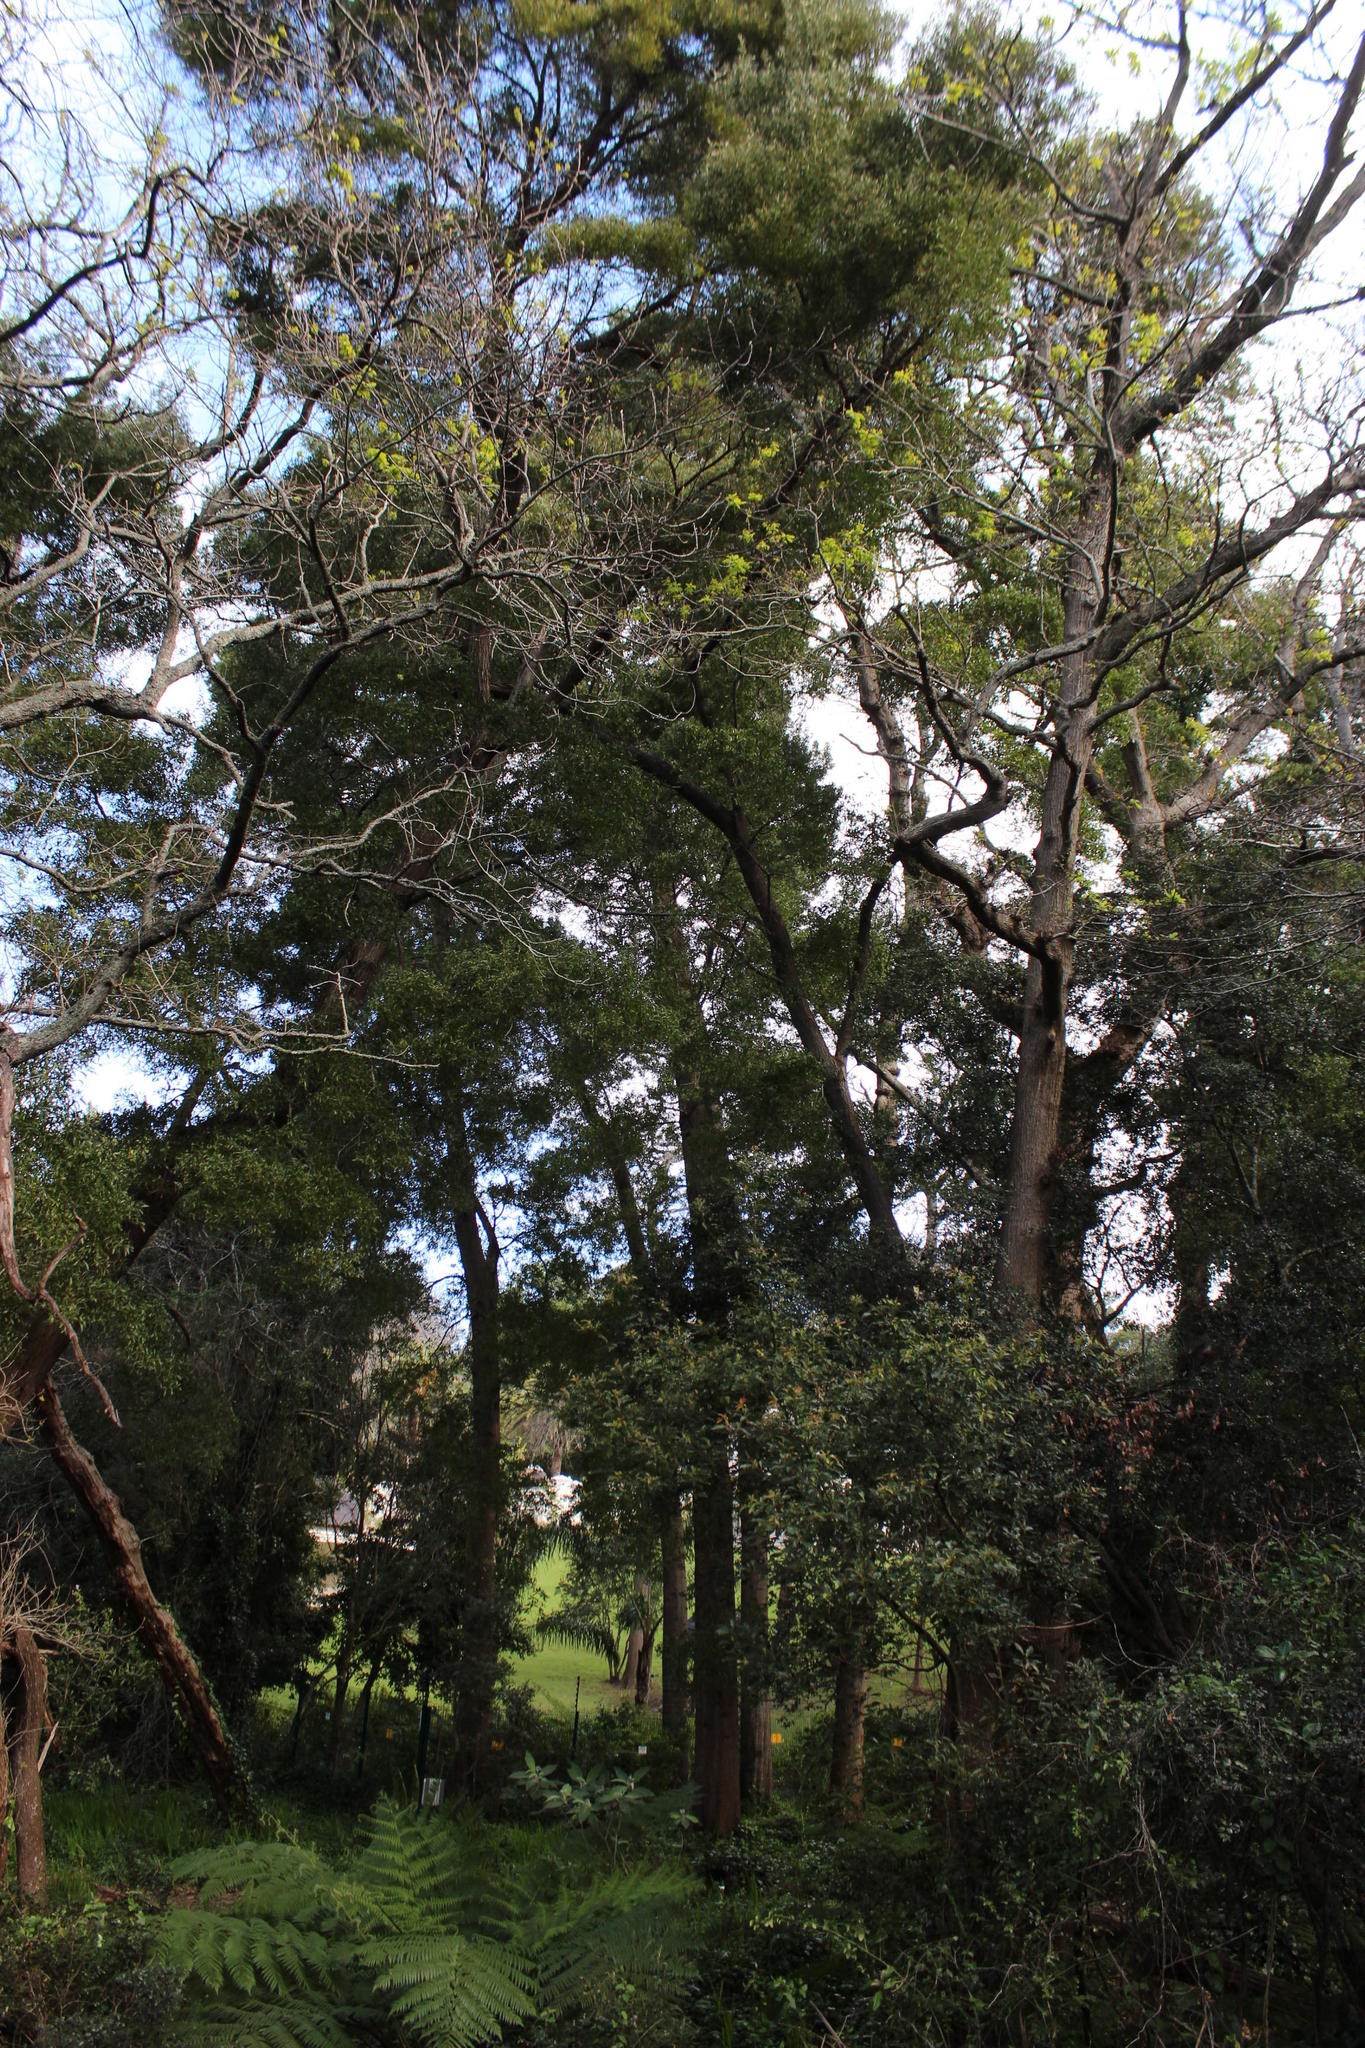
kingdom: Plantae
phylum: Tracheophyta
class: Magnoliopsida
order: Fabales
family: Fabaceae
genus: Acacia
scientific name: Acacia melanoxylon
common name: Blackwood
